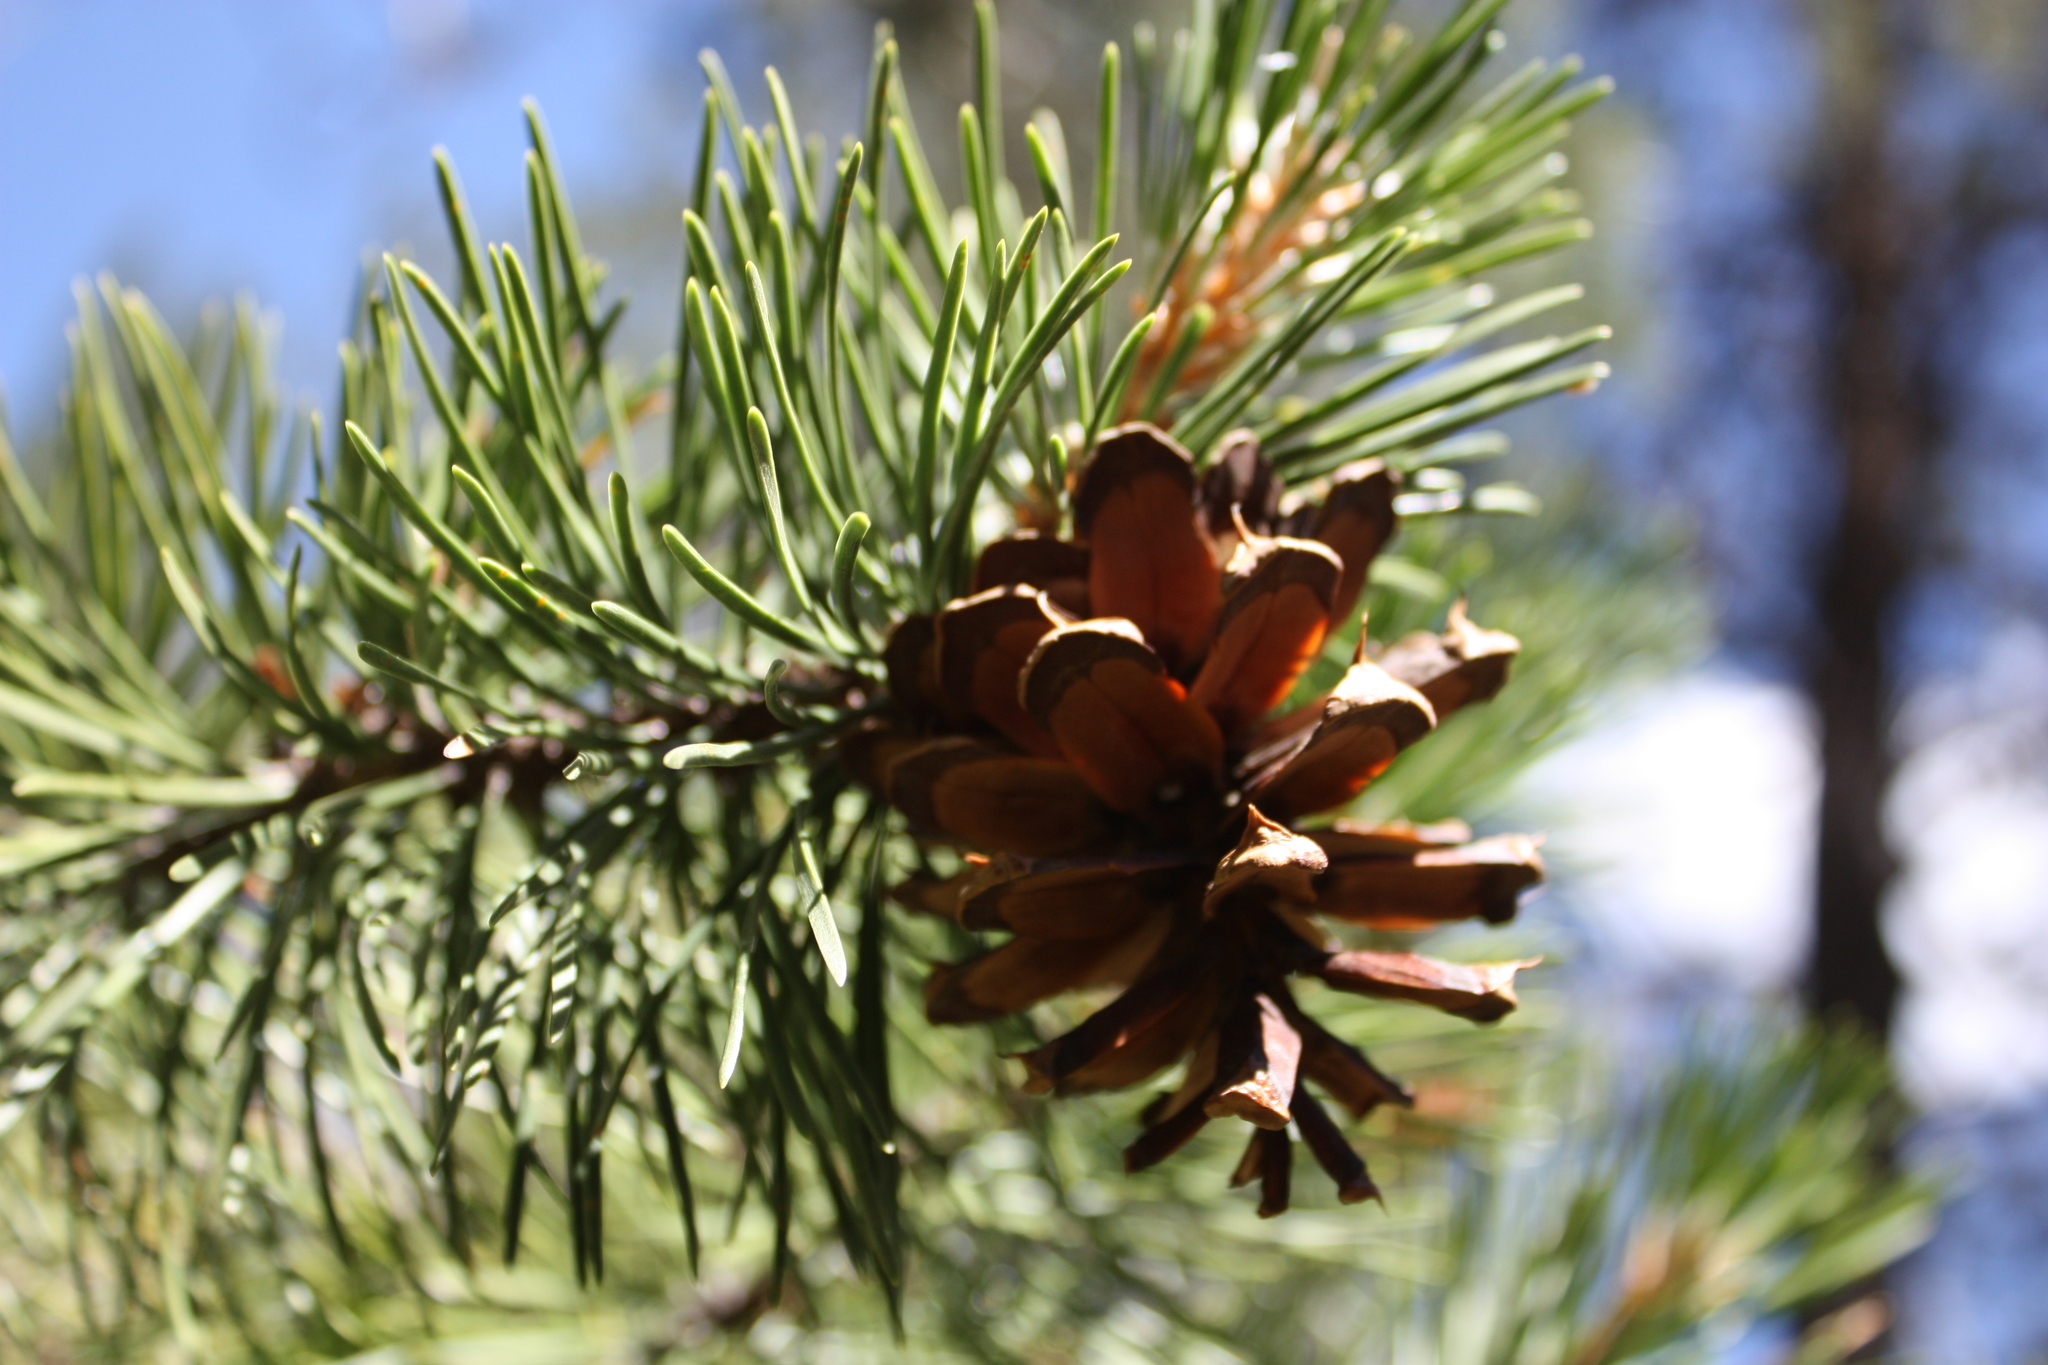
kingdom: Plantae
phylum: Tracheophyta
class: Pinopsida
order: Pinales
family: Pinaceae
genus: Pinus
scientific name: Pinus contorta
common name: Lodgepole pine
